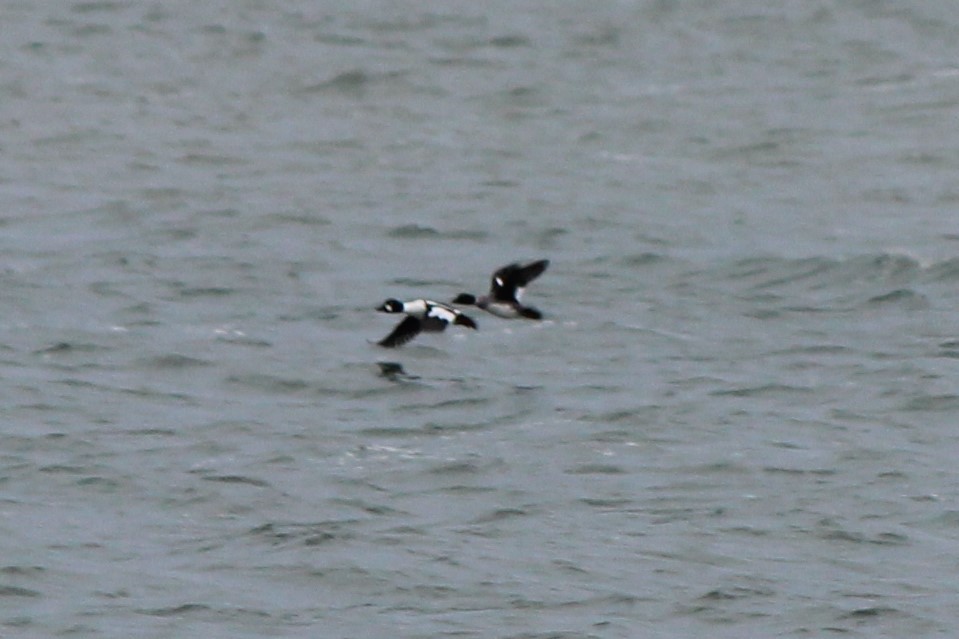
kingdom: Animalia
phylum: Chordata
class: Aves
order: Anseriformes
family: Anatidae
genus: Bucephala
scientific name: Bucephala clangula
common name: Common goldeneye
